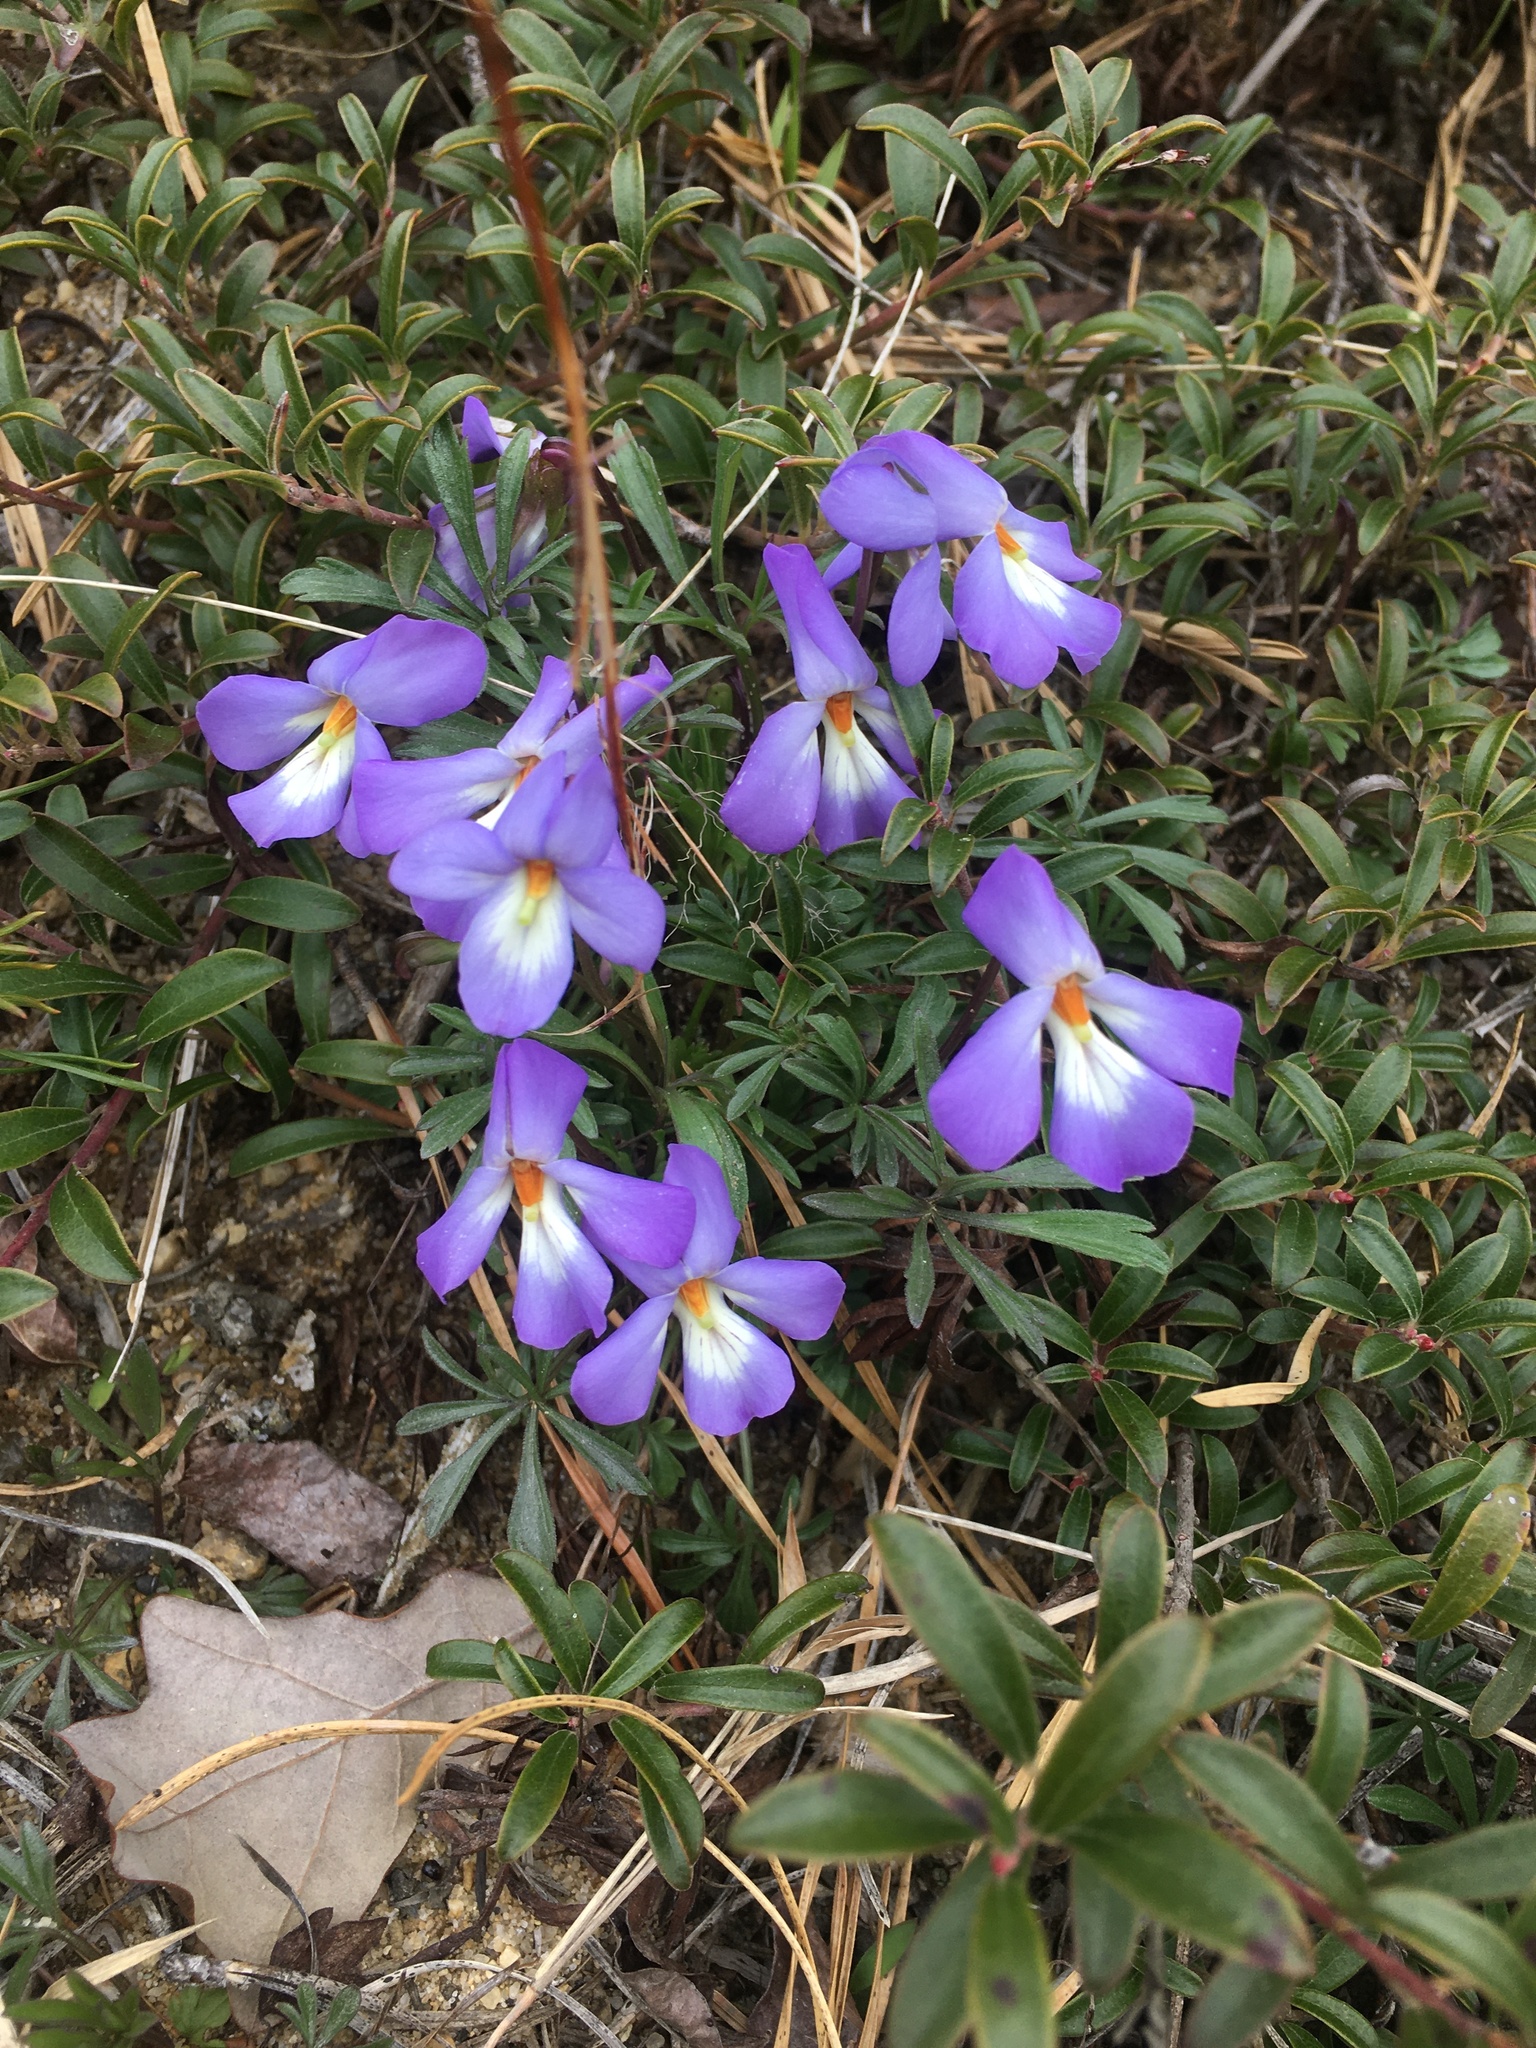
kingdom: Plantae
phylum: Tracheophyta
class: Magnoliopsida
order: Malpighiales
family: Violaceae
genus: Viola
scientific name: Viola pedata
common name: Pansy violet
